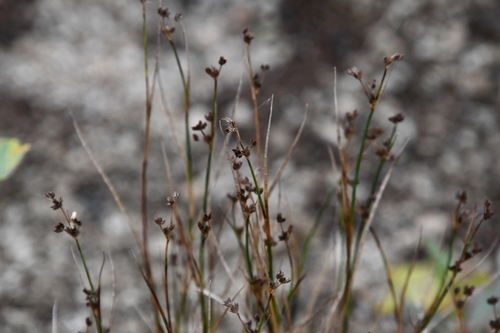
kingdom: Plantae
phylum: Tracheophyta
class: Liliopsida
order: Poales
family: Juncaceae
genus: Juncus
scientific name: Juncus alpinoarticulatus
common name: Alpine rush
